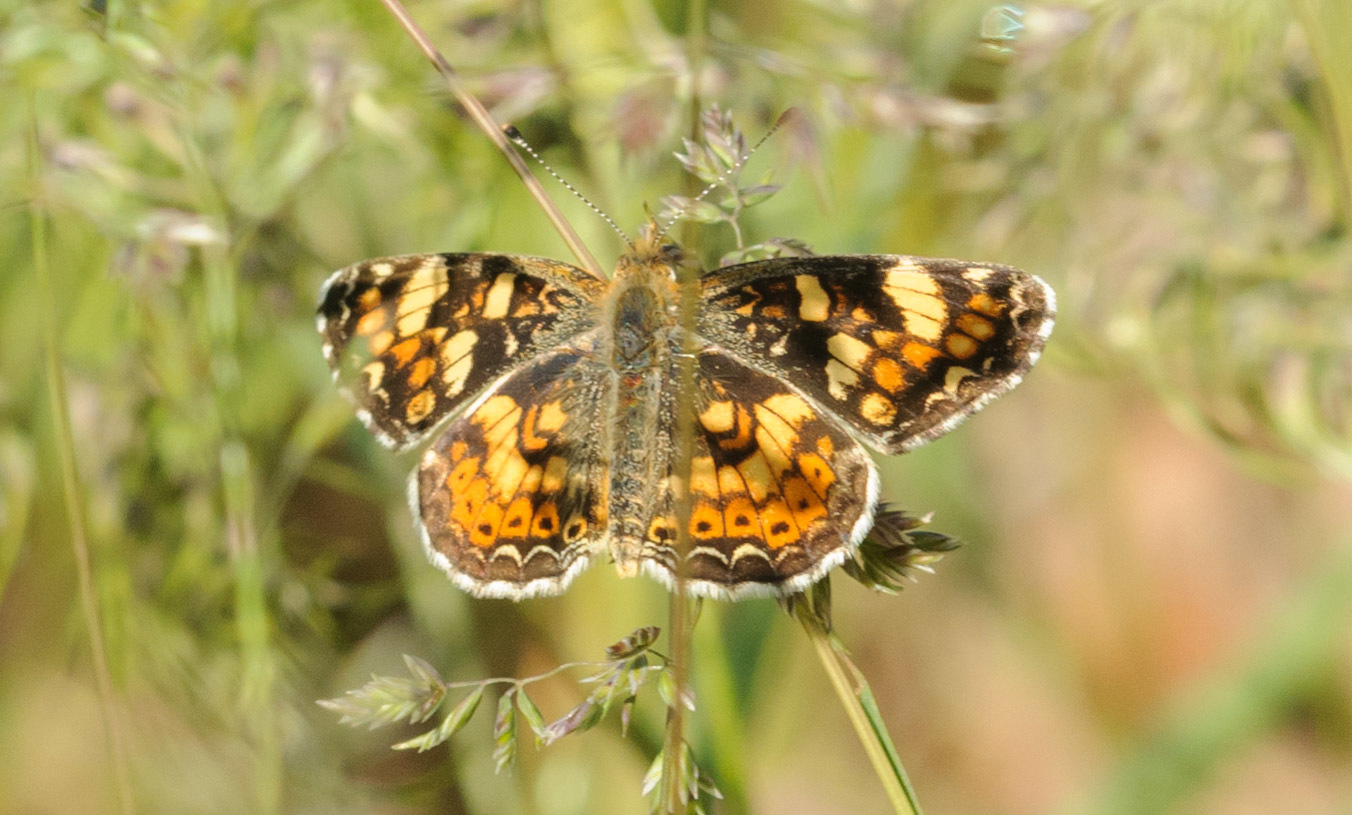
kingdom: Animalia
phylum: Arthropoda
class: Insecta
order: Lepidoptera
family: Nymphalidae
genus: Phyciodes
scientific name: Phyciodes tharos
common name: Pearl crescent
